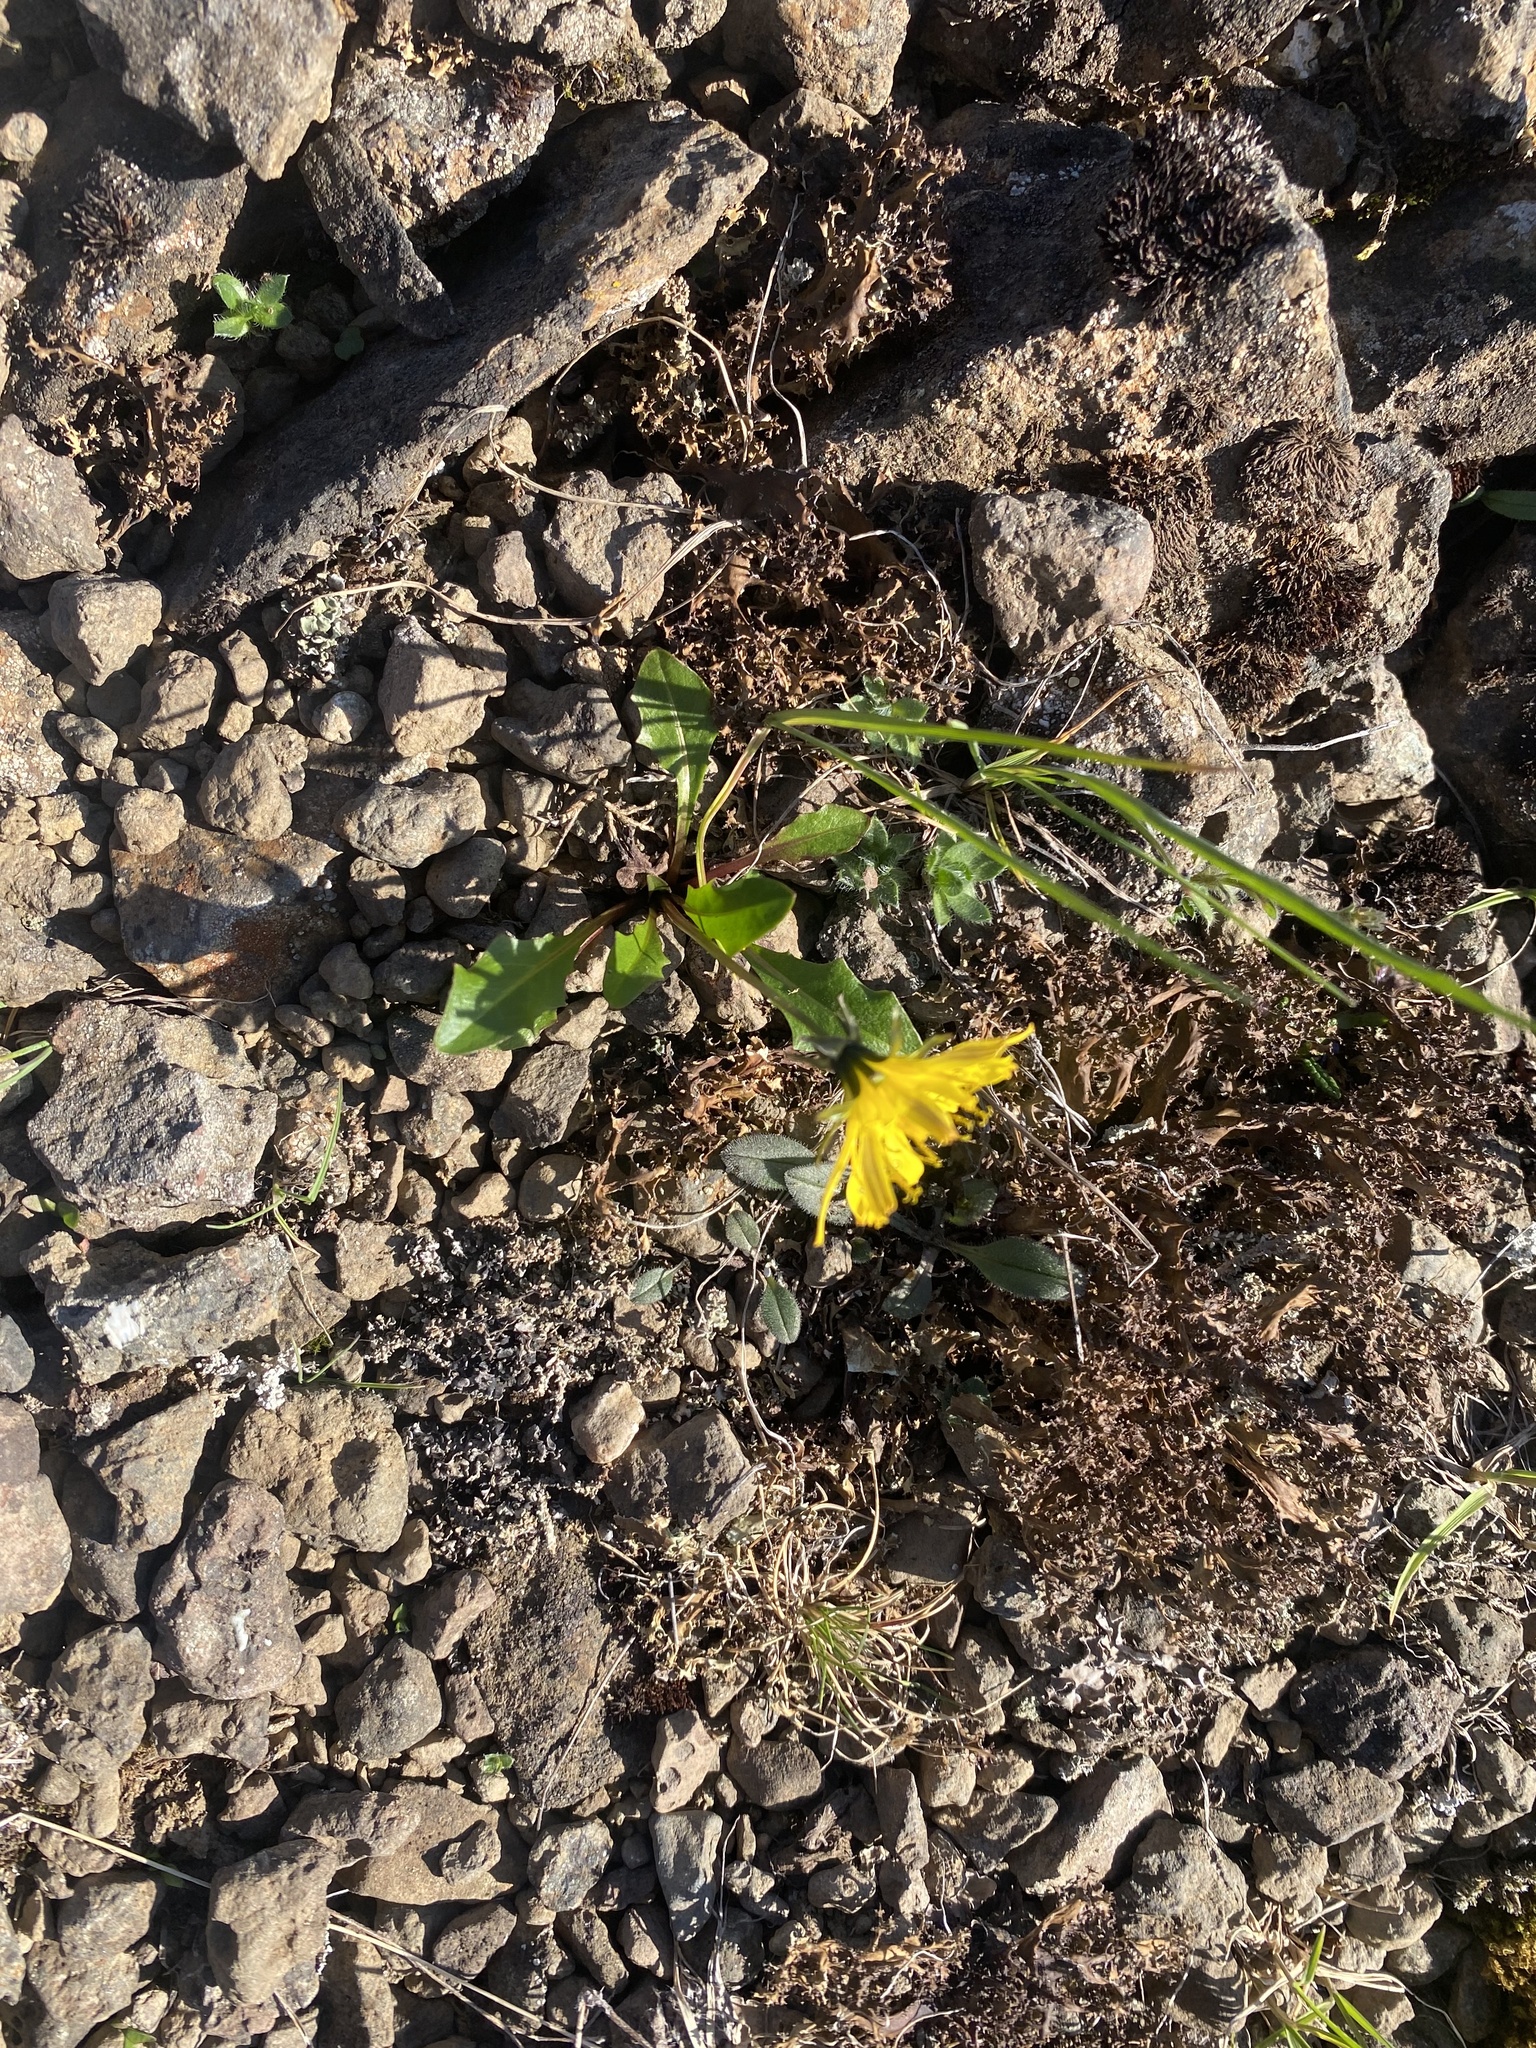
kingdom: Plantae
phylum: Tracheophyta
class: Magnoliopsida
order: Asterales
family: Asteraceae
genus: Taraxacum
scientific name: Taraxacum glabrum
